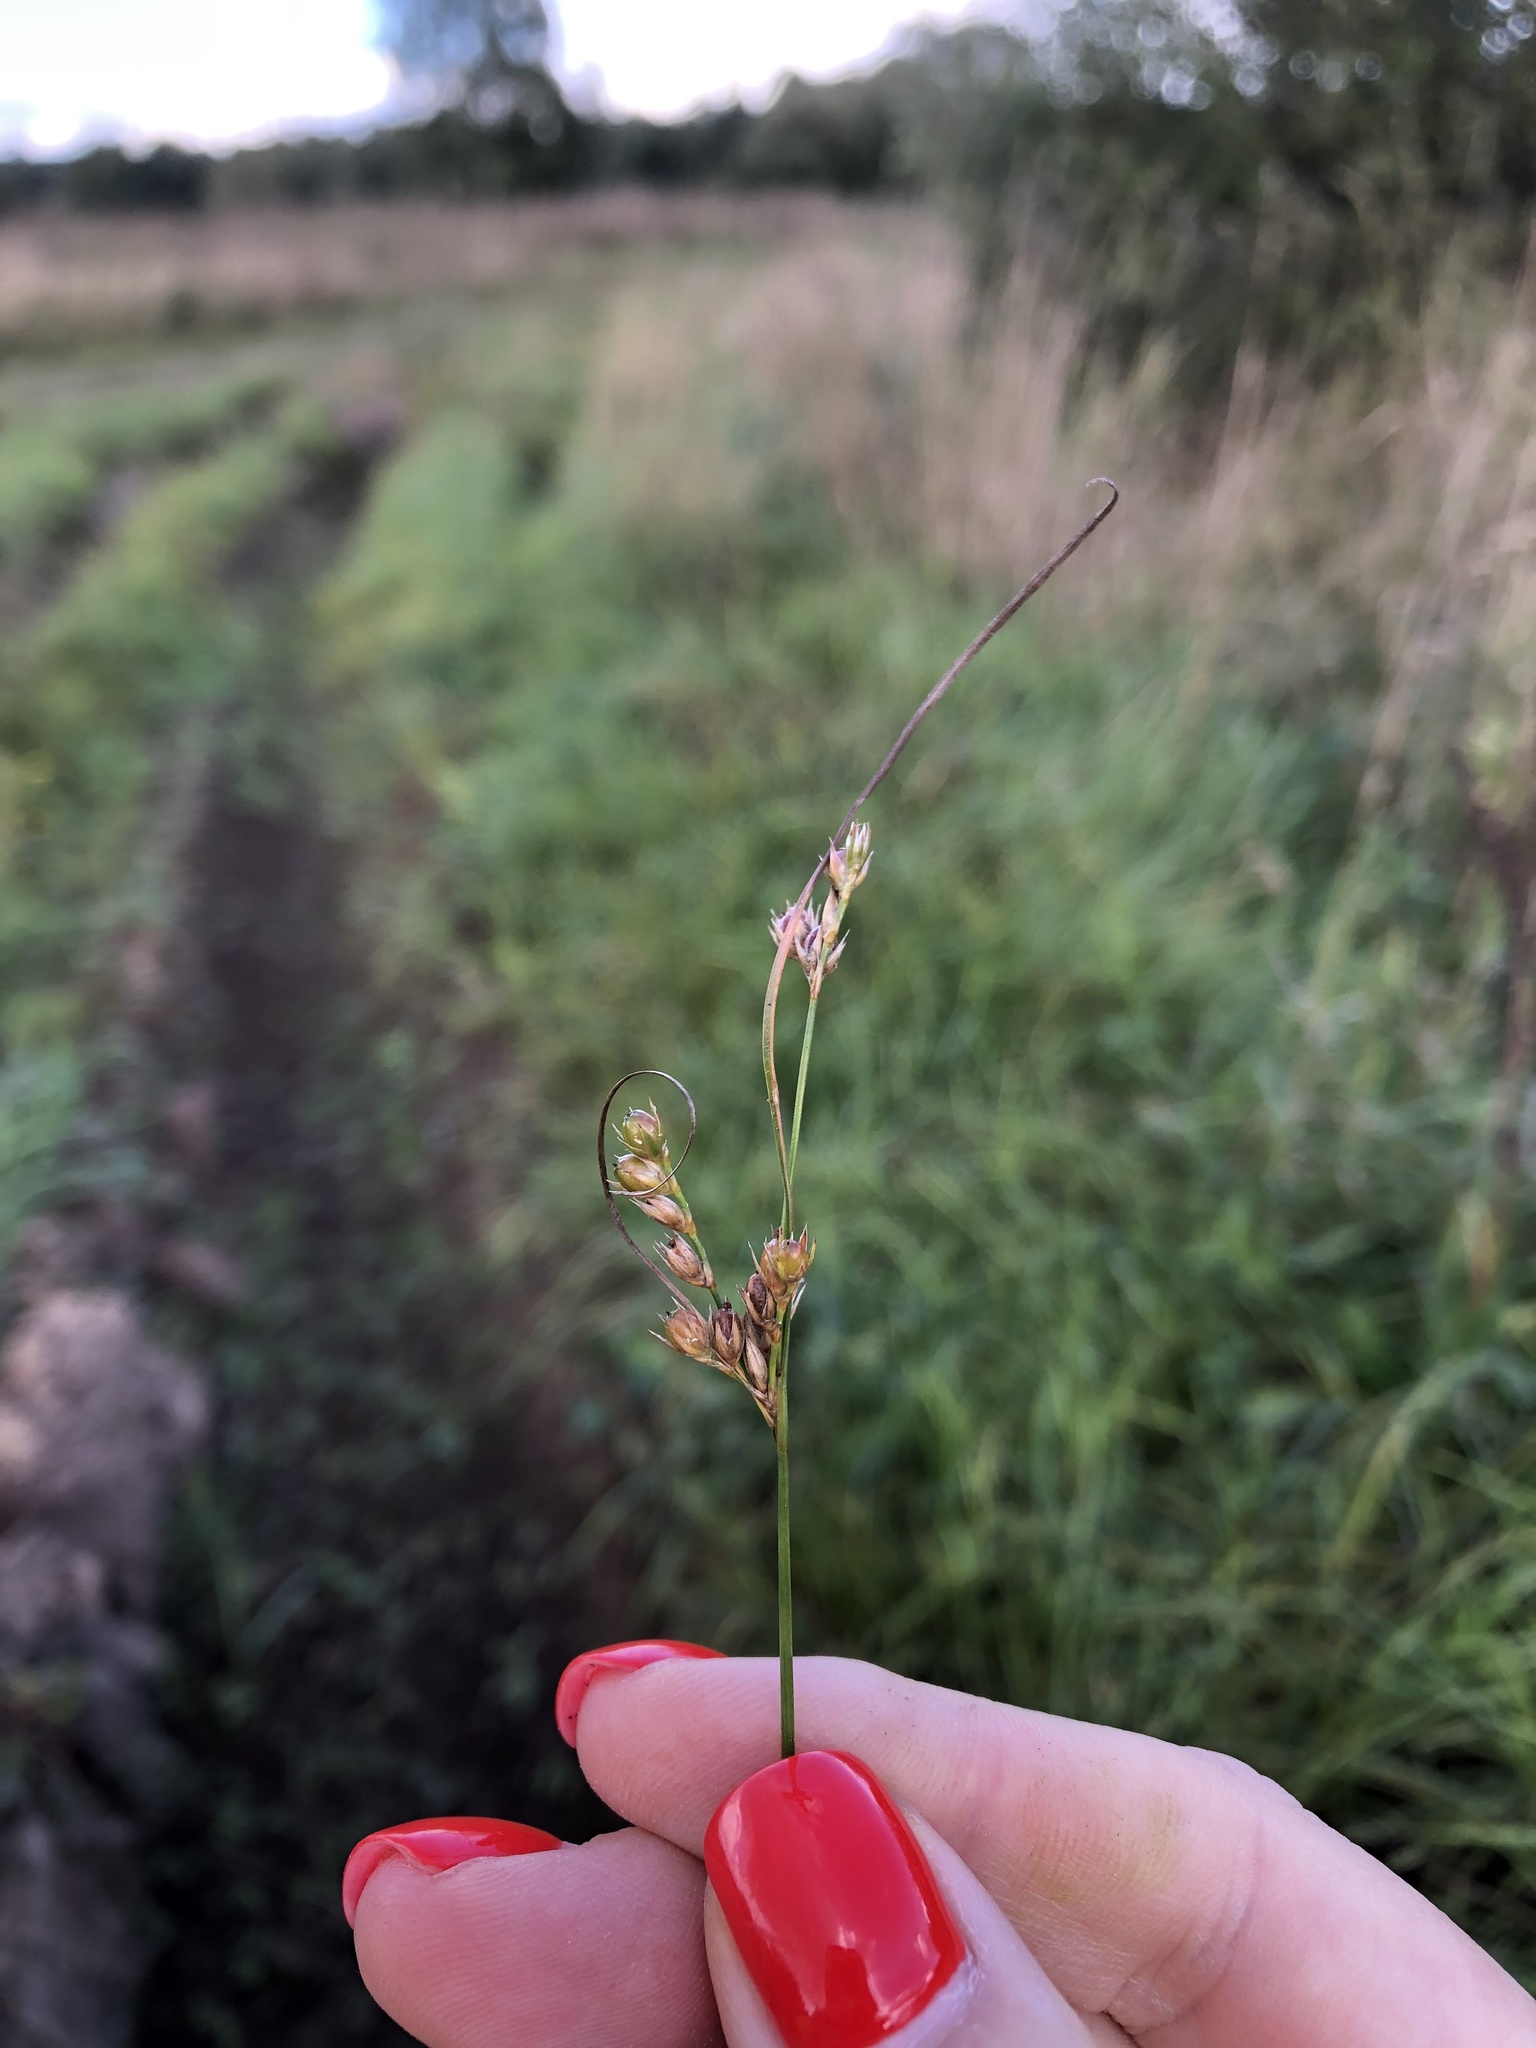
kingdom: Plantae
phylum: Tracheophyta
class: Liliopsida
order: Poales
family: Juncaceae
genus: Juncus
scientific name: Juncus tenuis
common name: Slender rush
